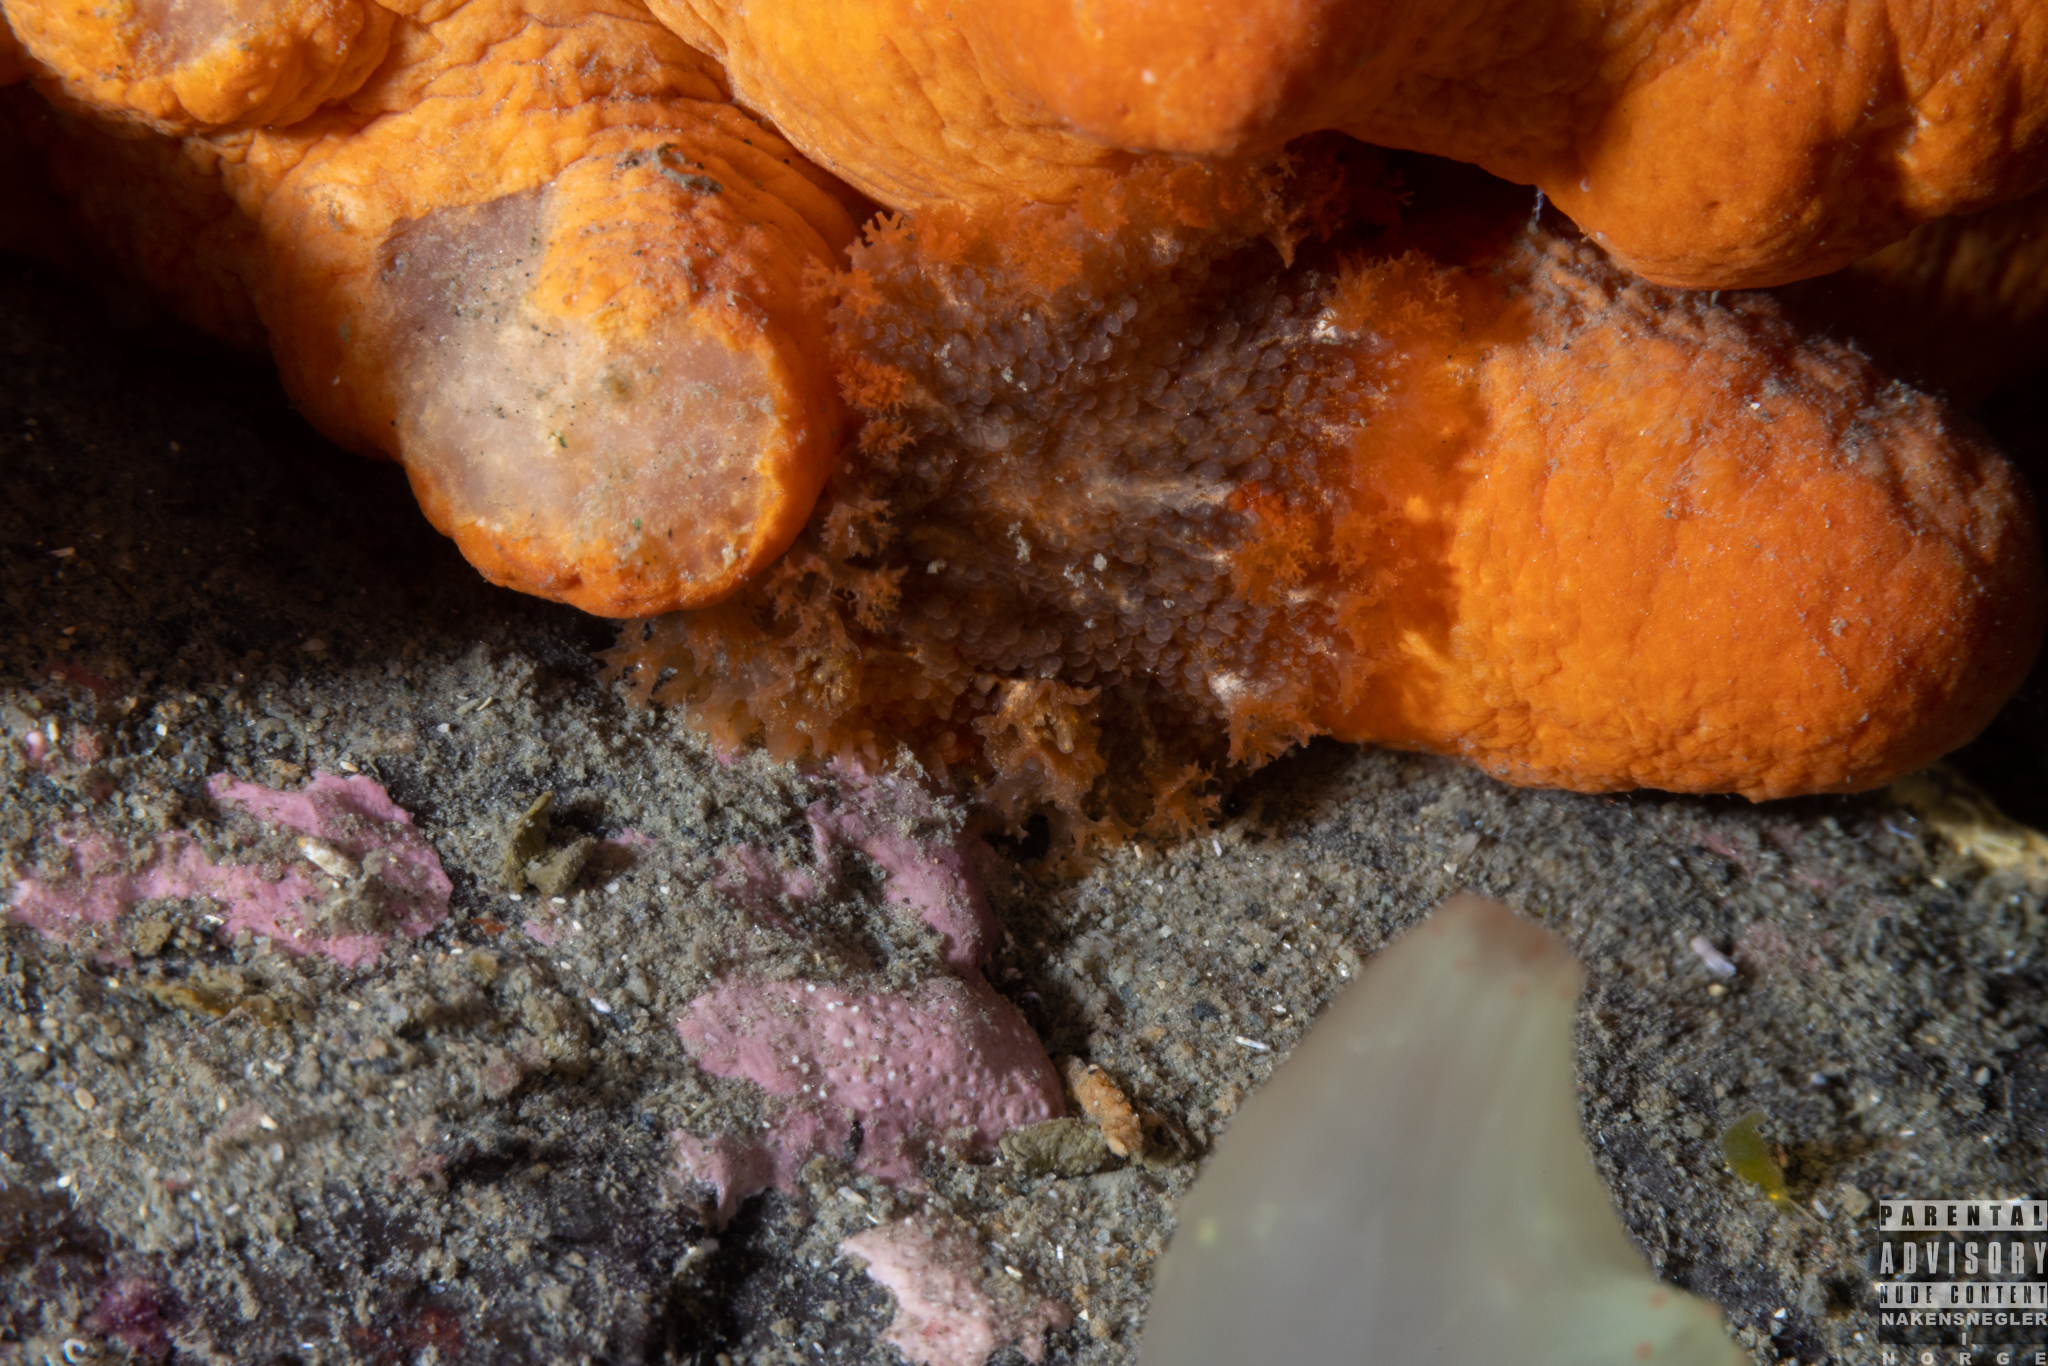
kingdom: Animalia
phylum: Mollusca
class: Gastropoda
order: Nudibranchia
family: Tritoniidae
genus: Tritonia
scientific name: Tritonia hombergii
